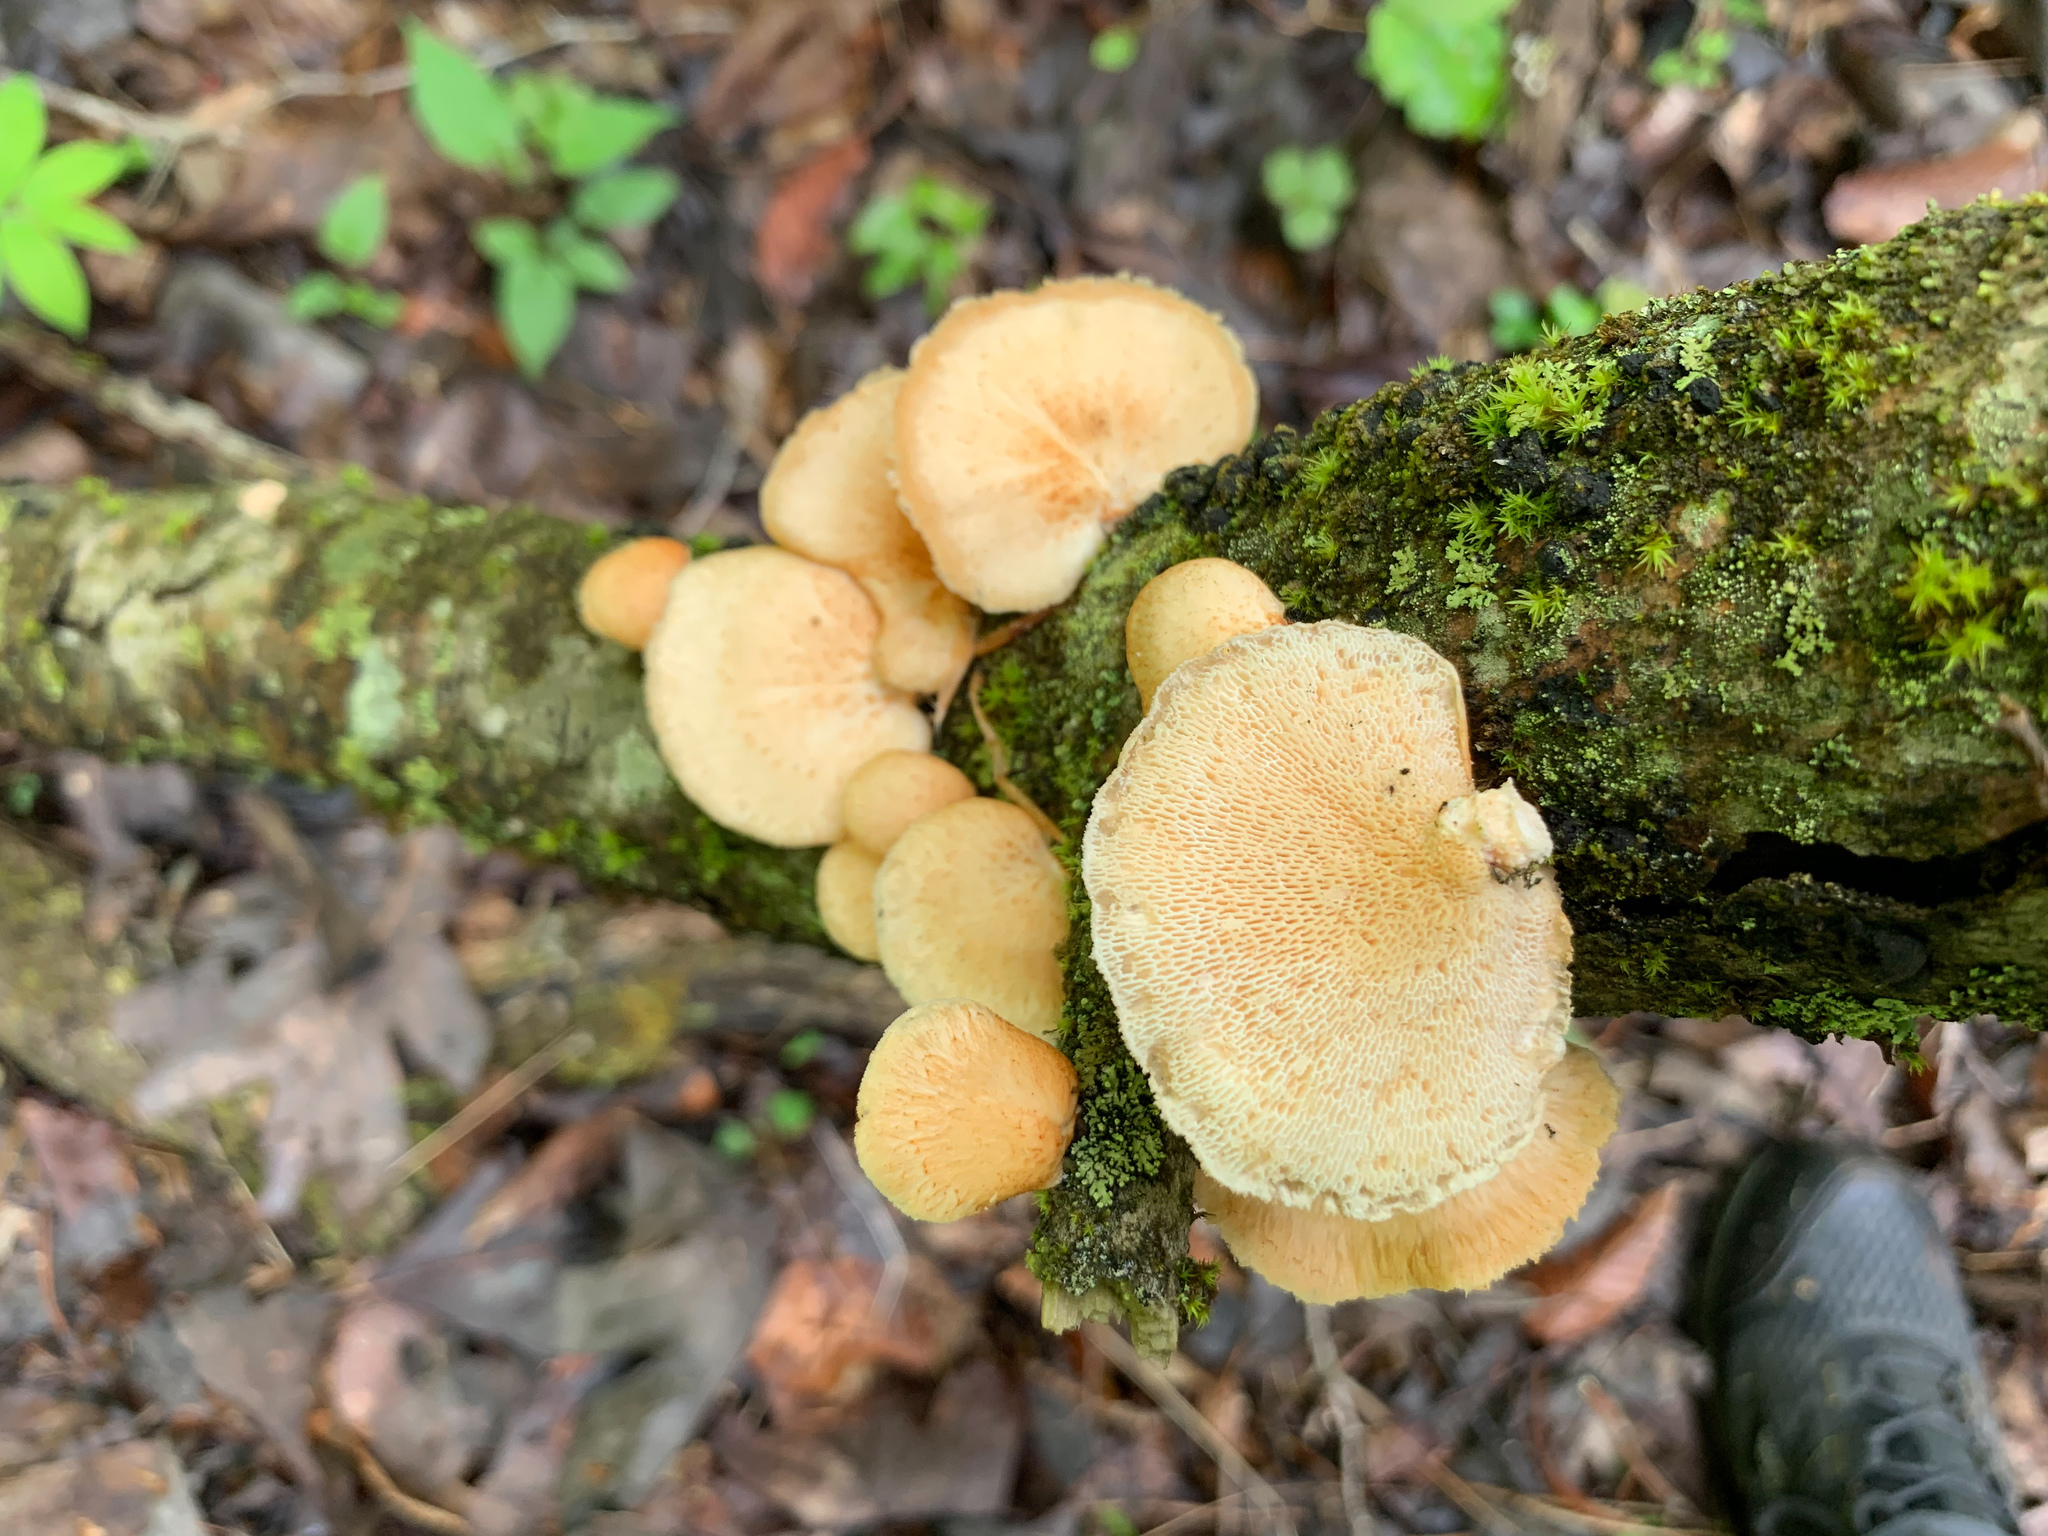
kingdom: Fungi
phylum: Basidiomycota
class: Agaricomycetes
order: Polyporales
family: Polyporaceae
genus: Neofavolus
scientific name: Neofavolus alveolaris
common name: Hexagonal-pored polypore
